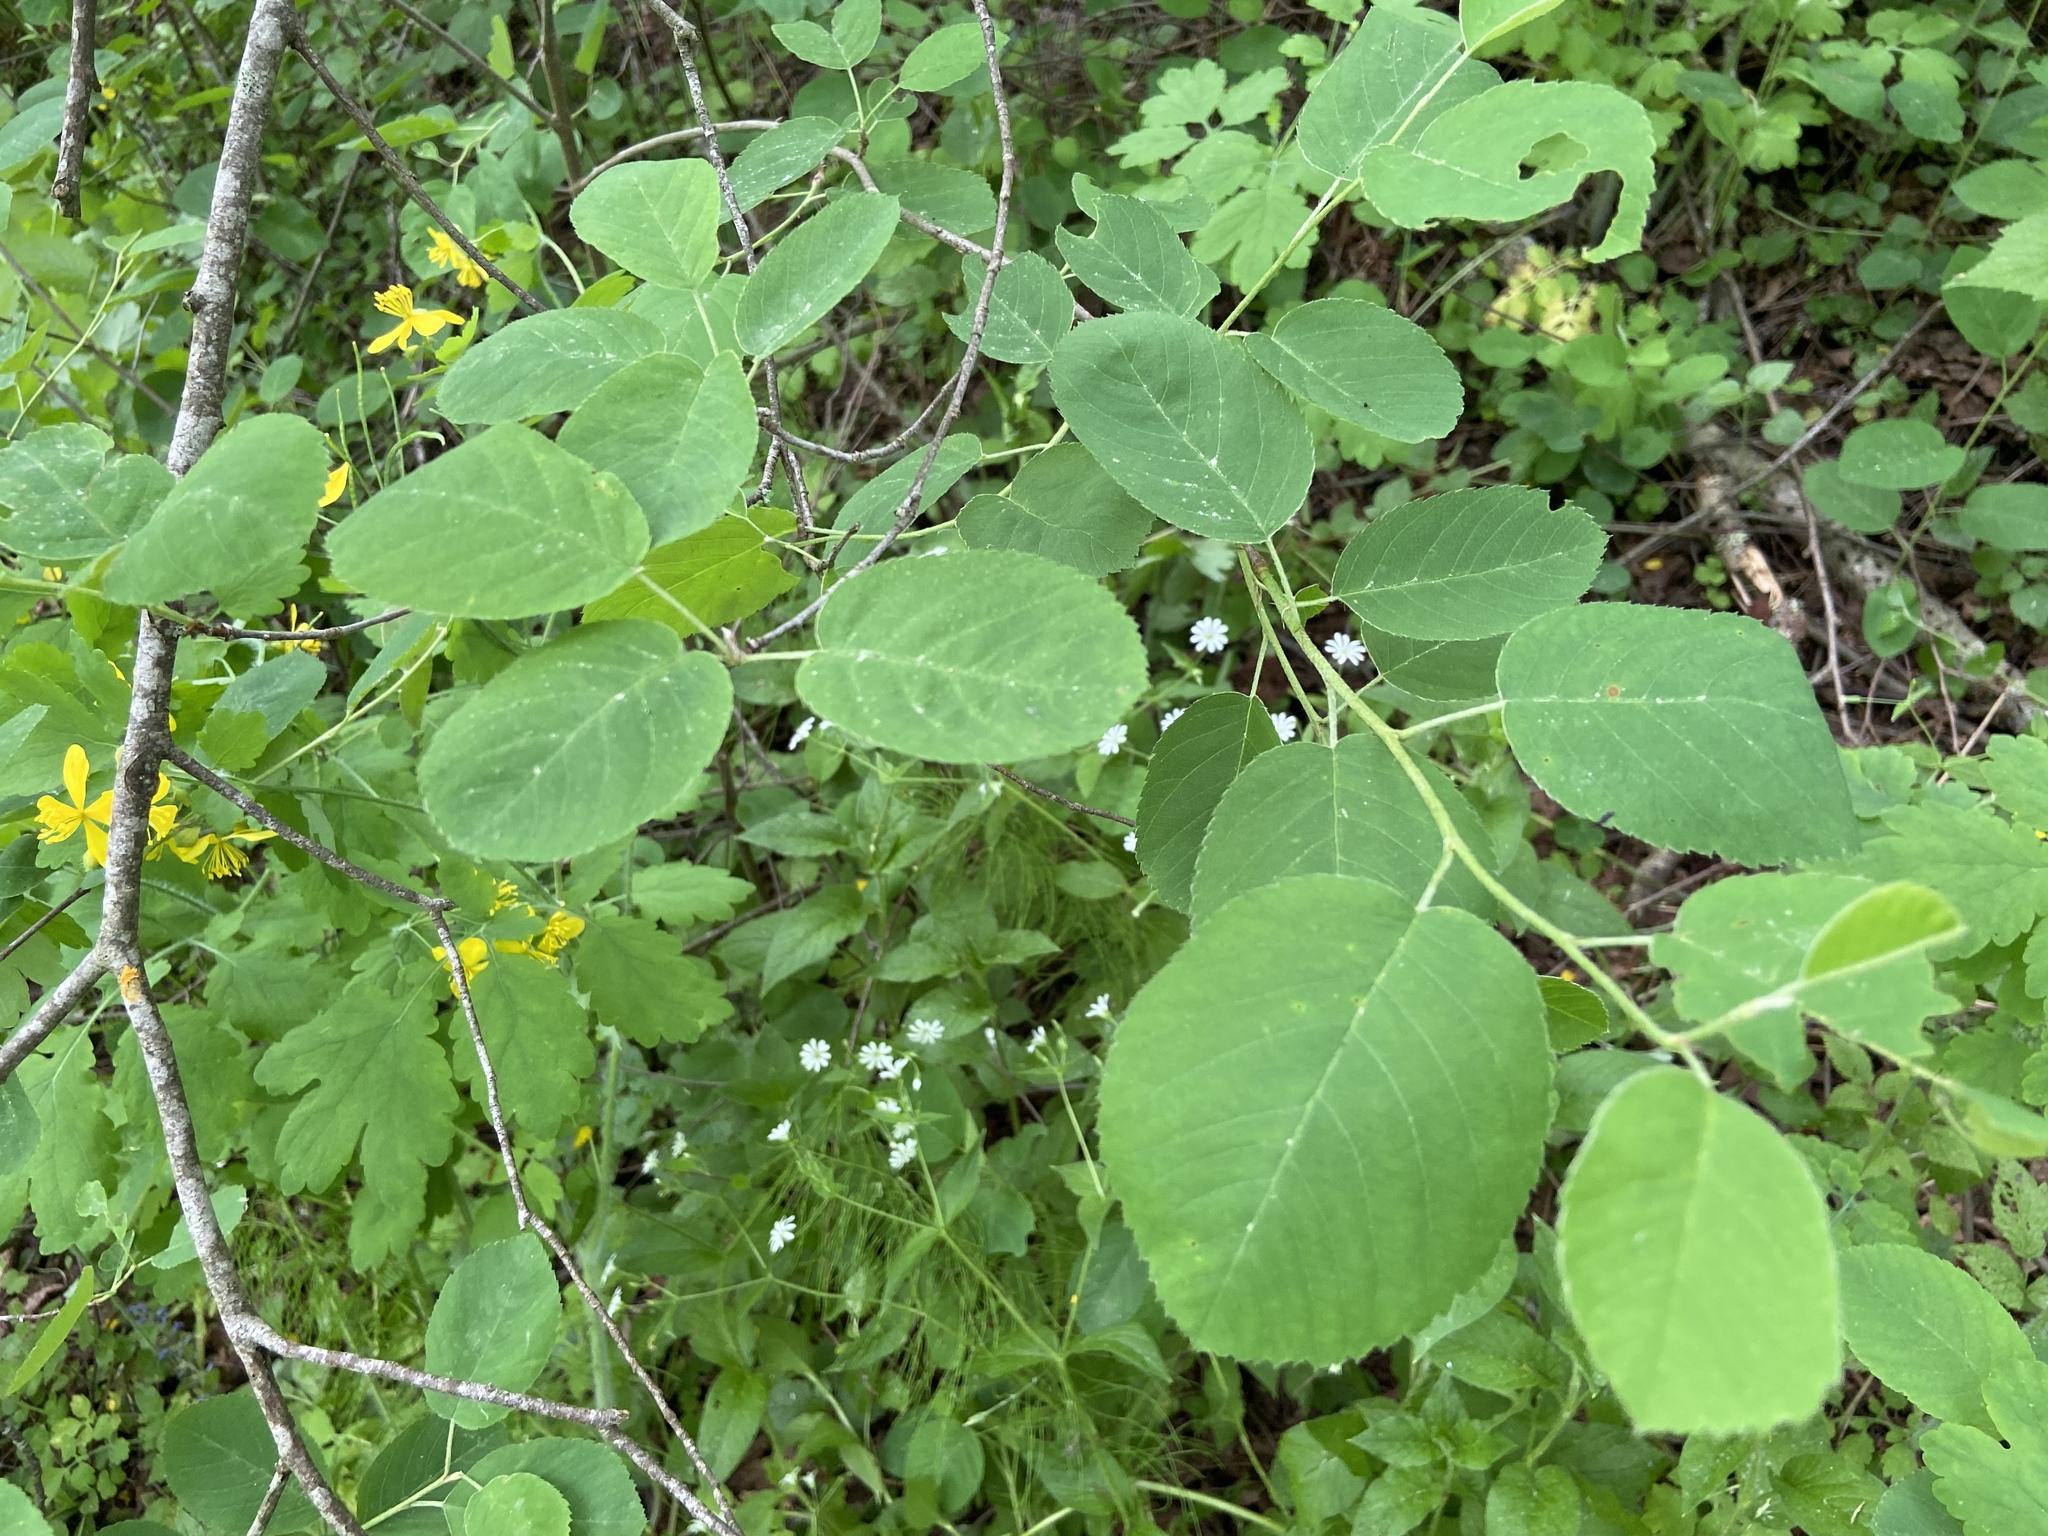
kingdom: Plantae
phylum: Tracheophyta
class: Magnoliopsida
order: Rosales
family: Rosaceae
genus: Amelanchier
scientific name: Amelanchier
